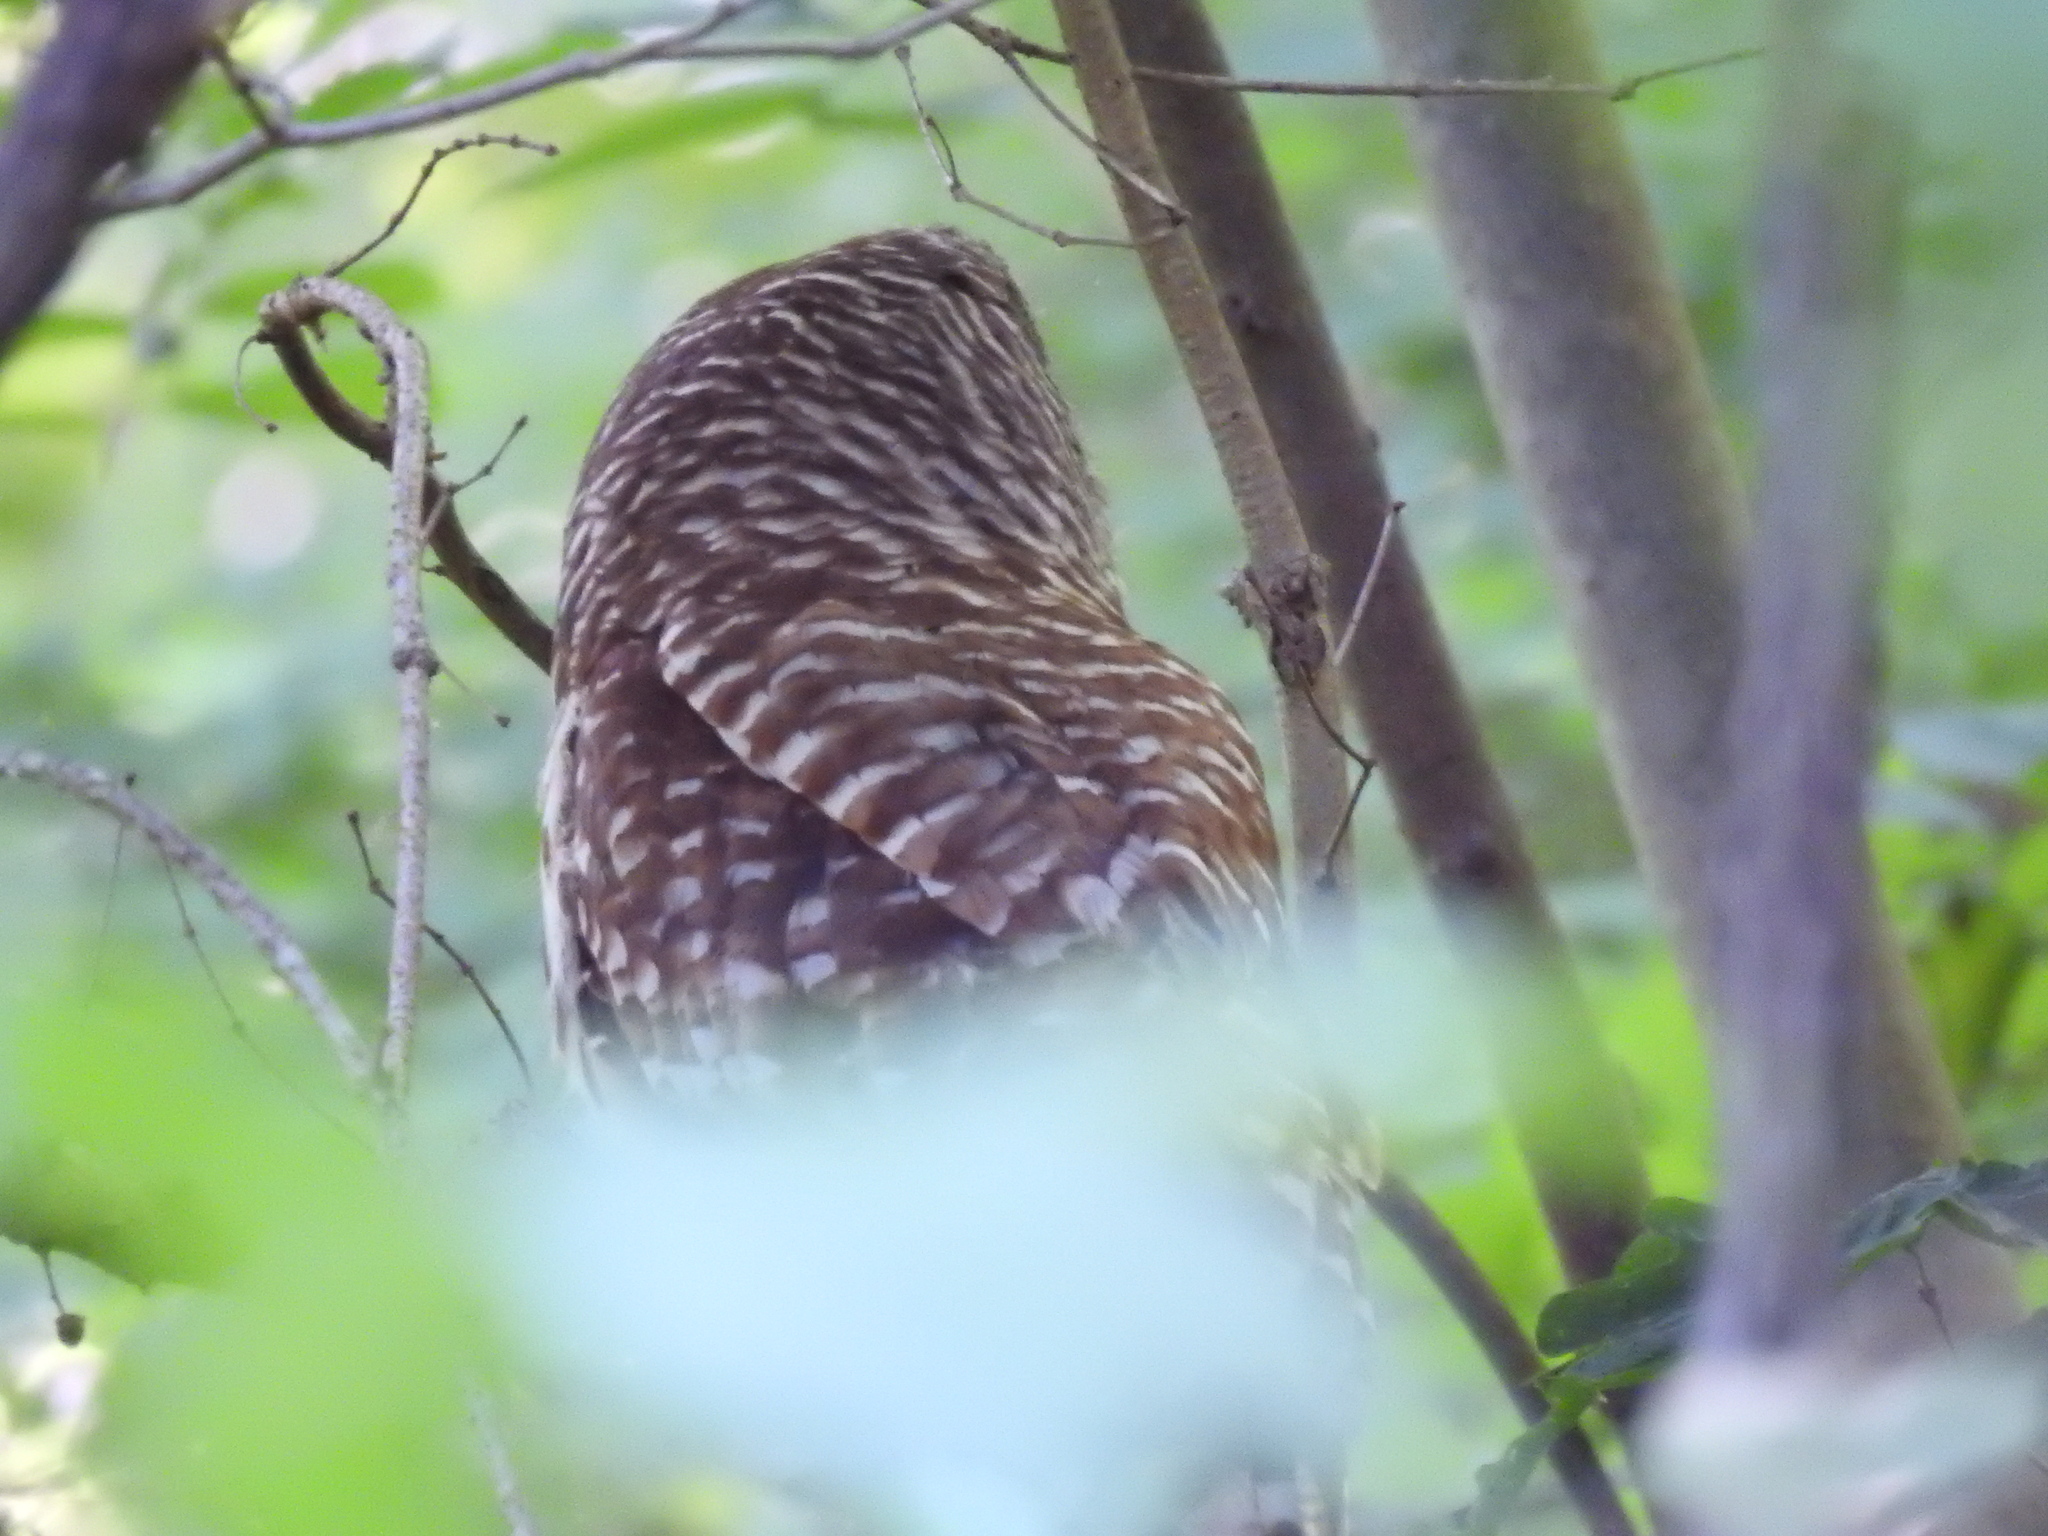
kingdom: Animalia
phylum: Chordata
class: Aves
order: Strigiformes
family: Strigidae
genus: Strix
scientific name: Strix varia
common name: Barred owl
